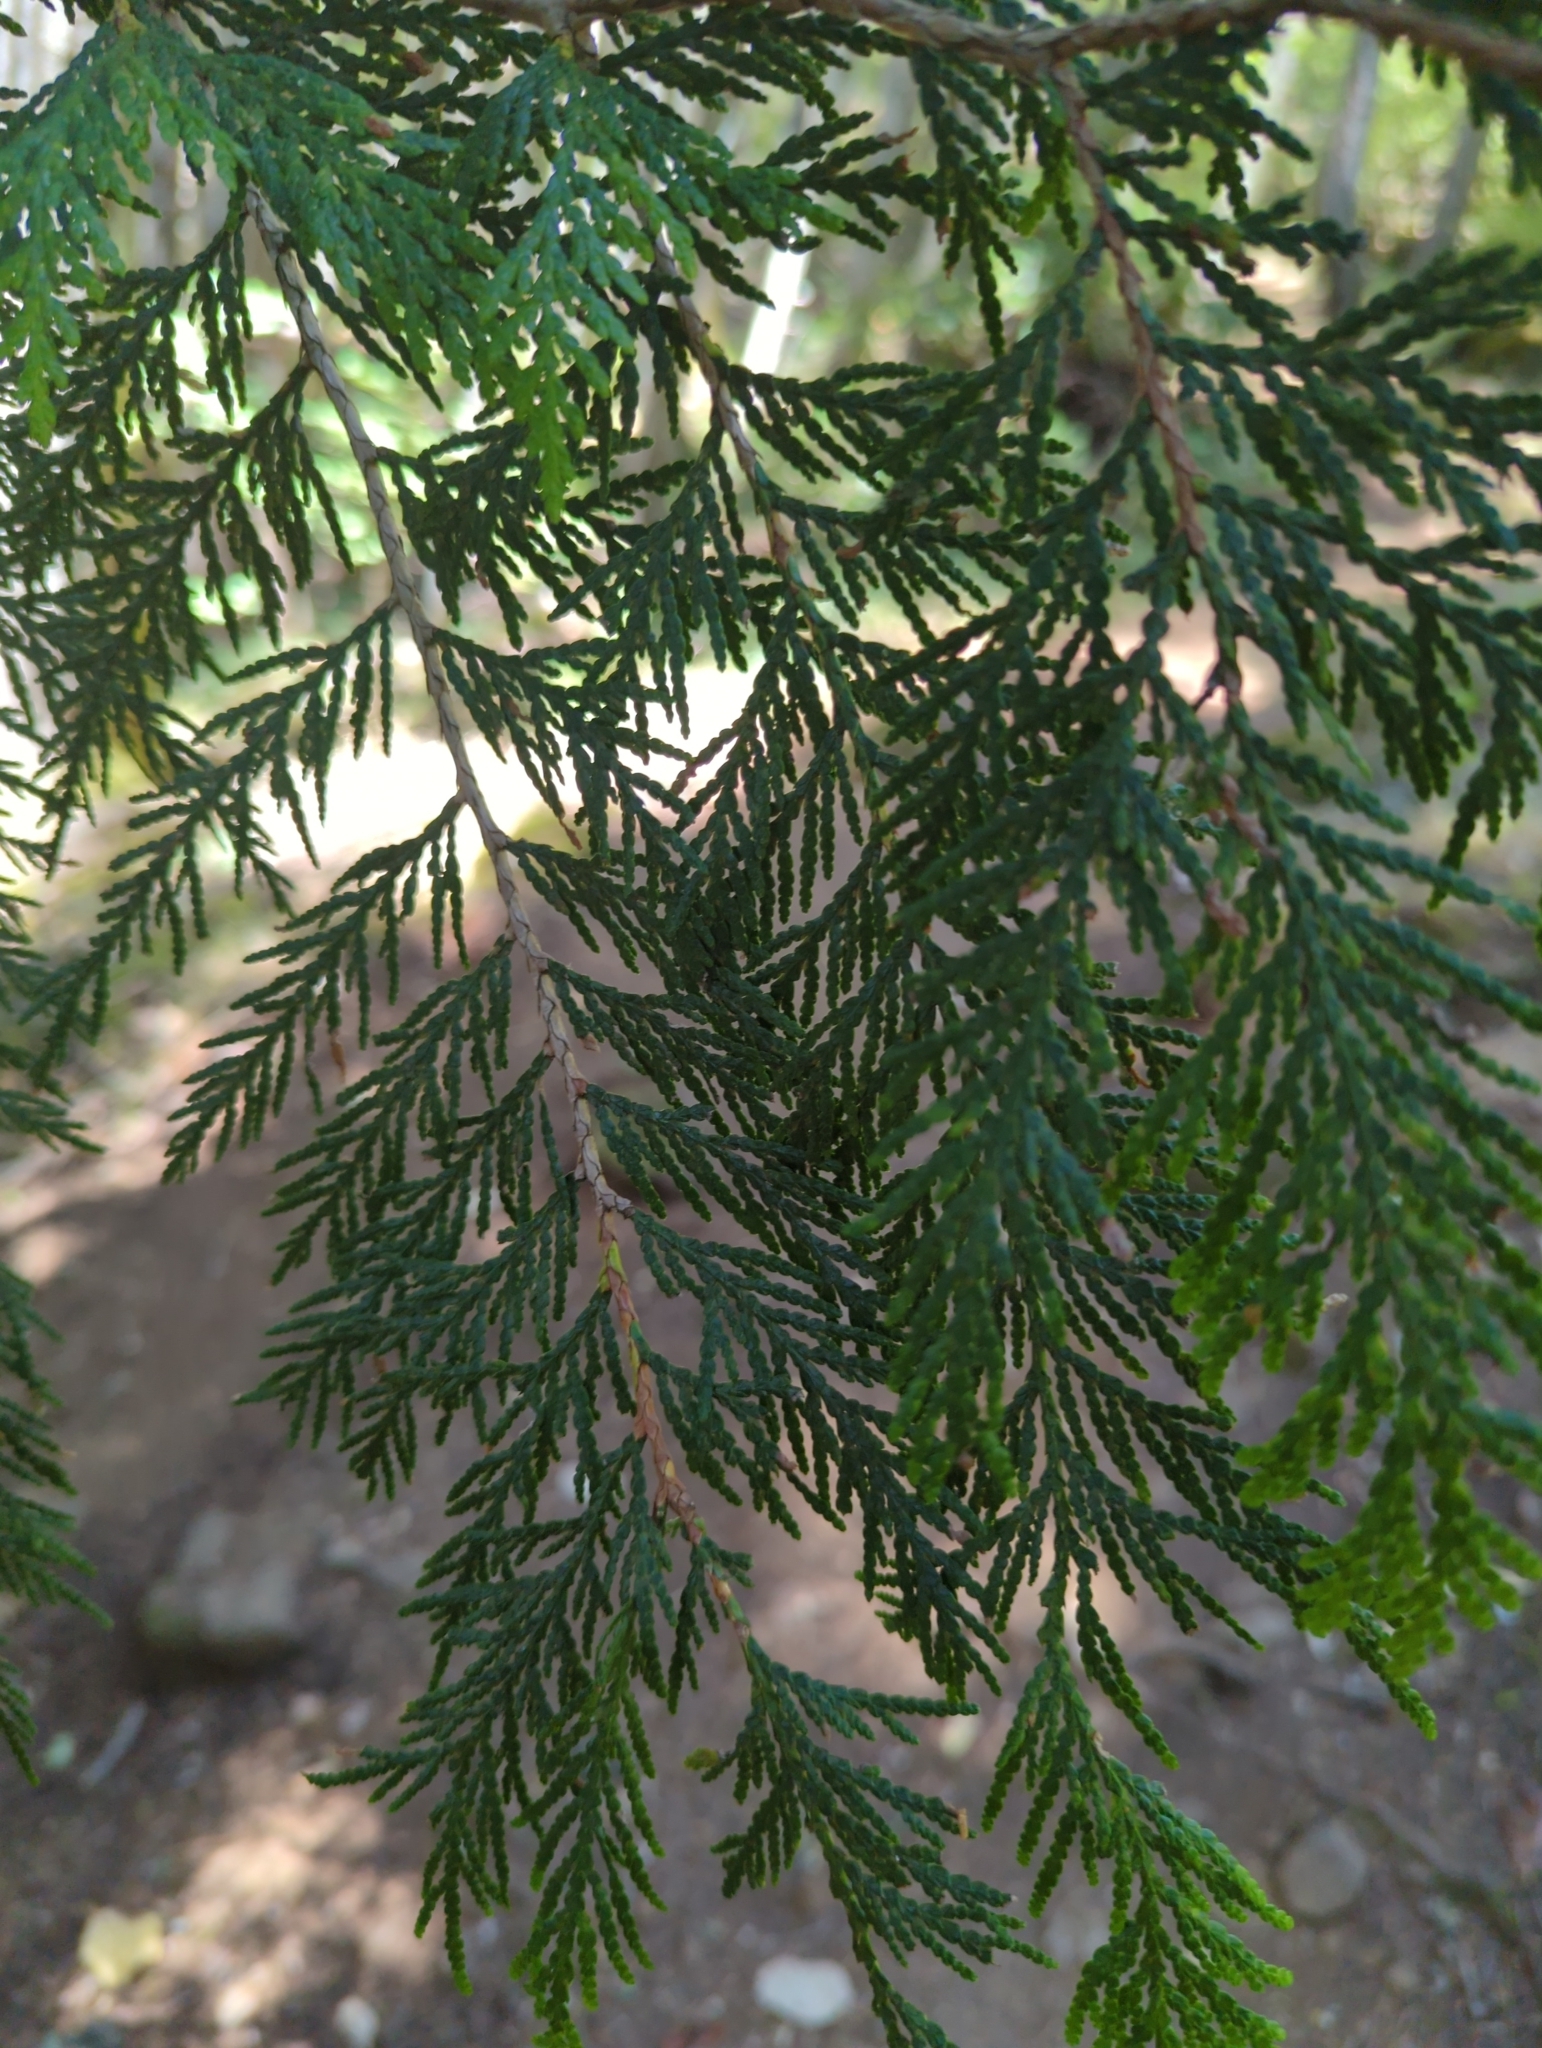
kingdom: Plantae
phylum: Tracheophyta
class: Pinopsida
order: Pinales
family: Cupressaceae
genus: Thuja
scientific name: Thuja plicata
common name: Western red-cedar
